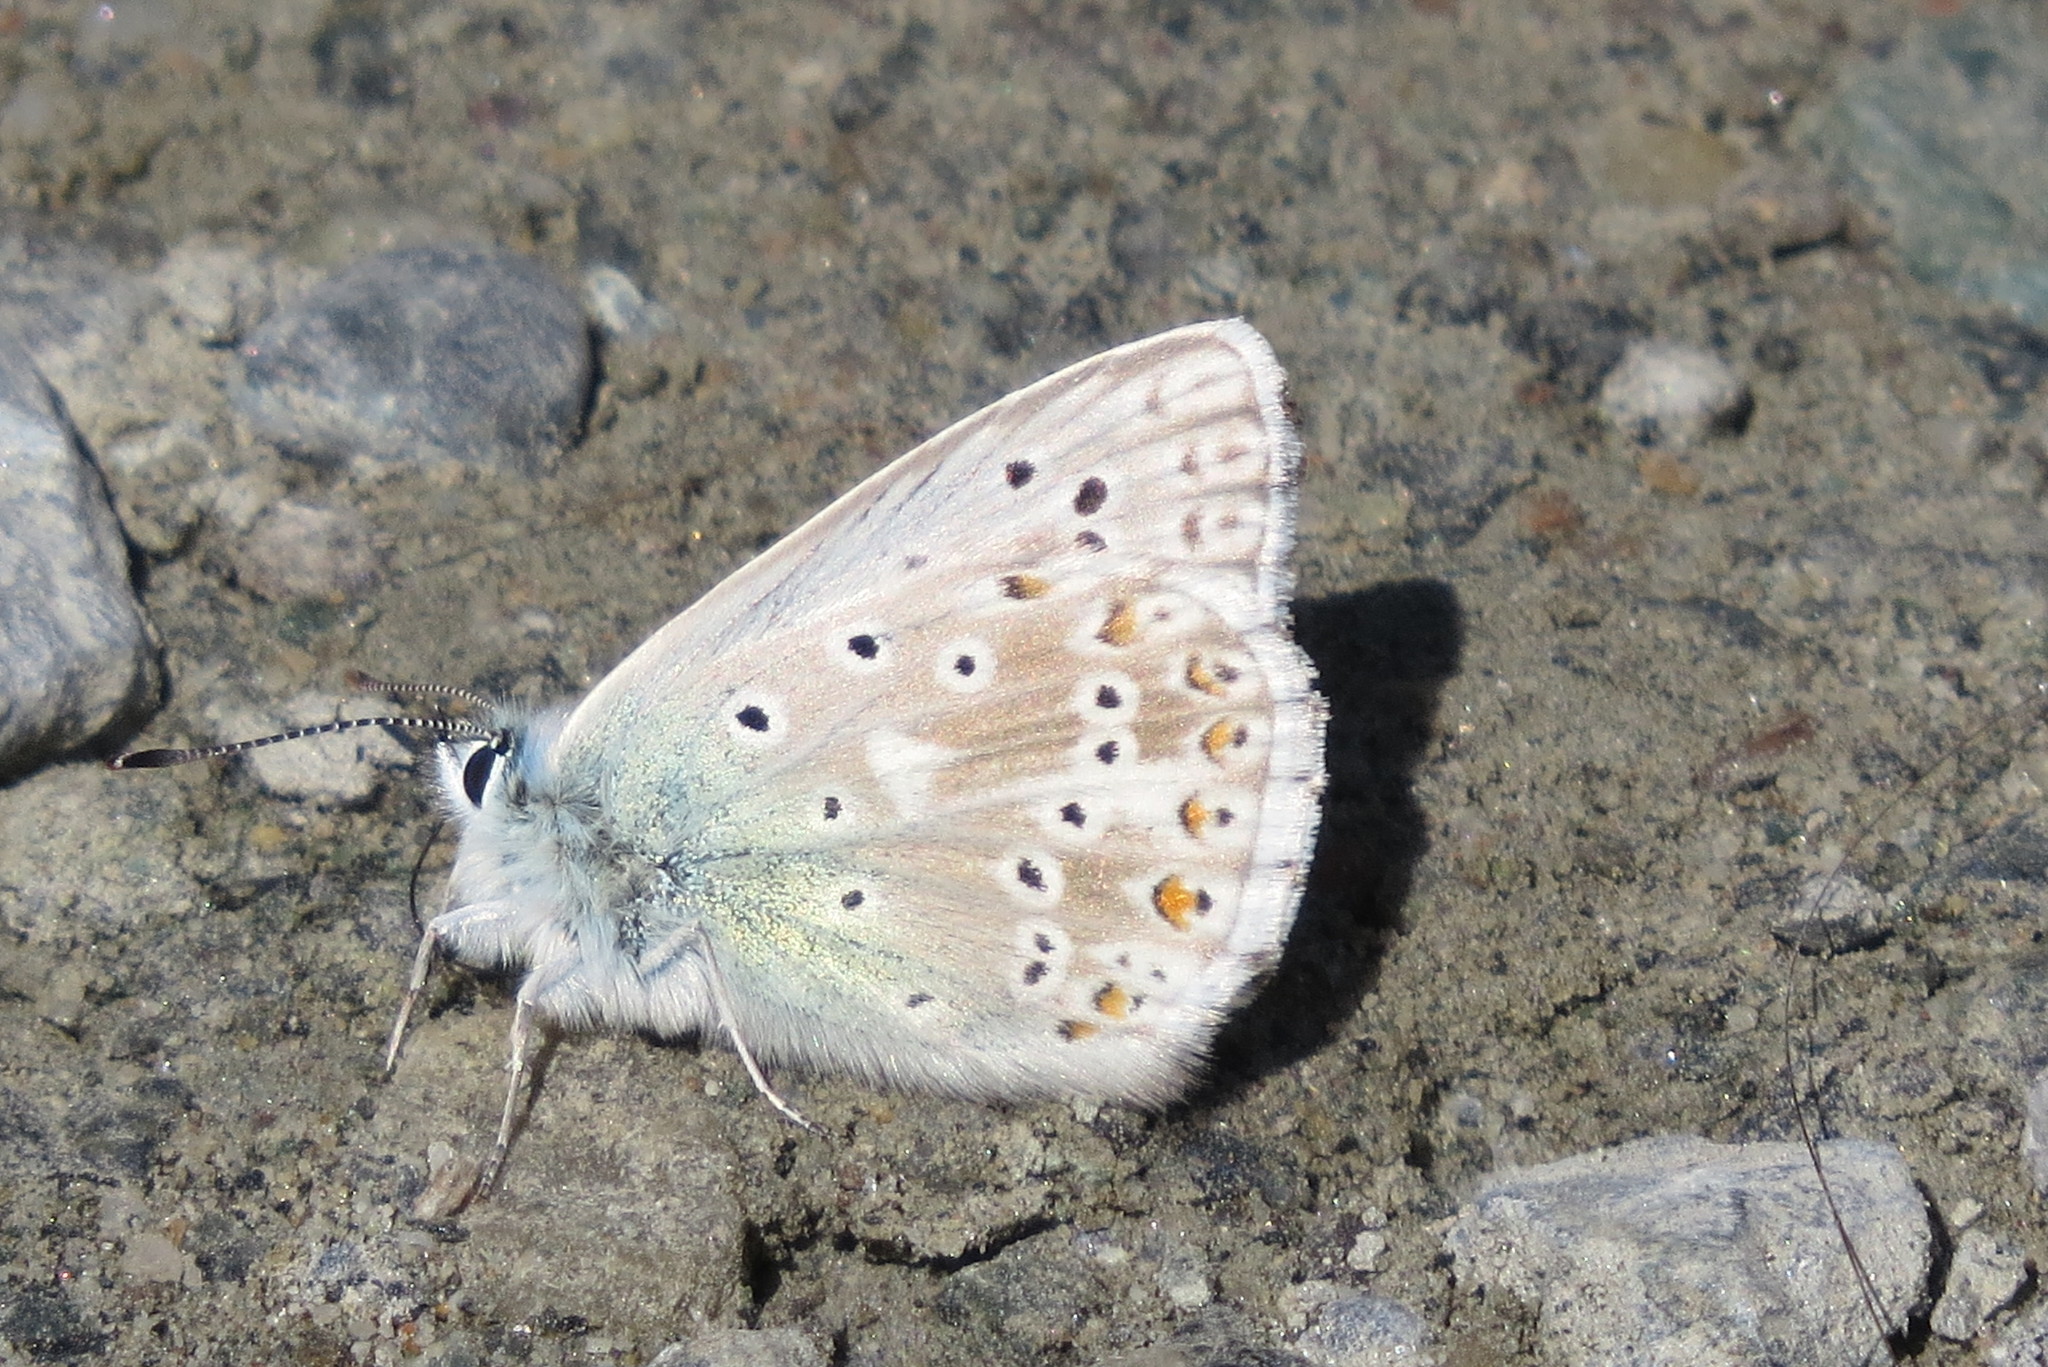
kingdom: Animalia
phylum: Arthropoda
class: Insecta
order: Lepidoptera
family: Lycaenidae
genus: Lysandra
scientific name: Lysandra coridon
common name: Chalkhill blue
